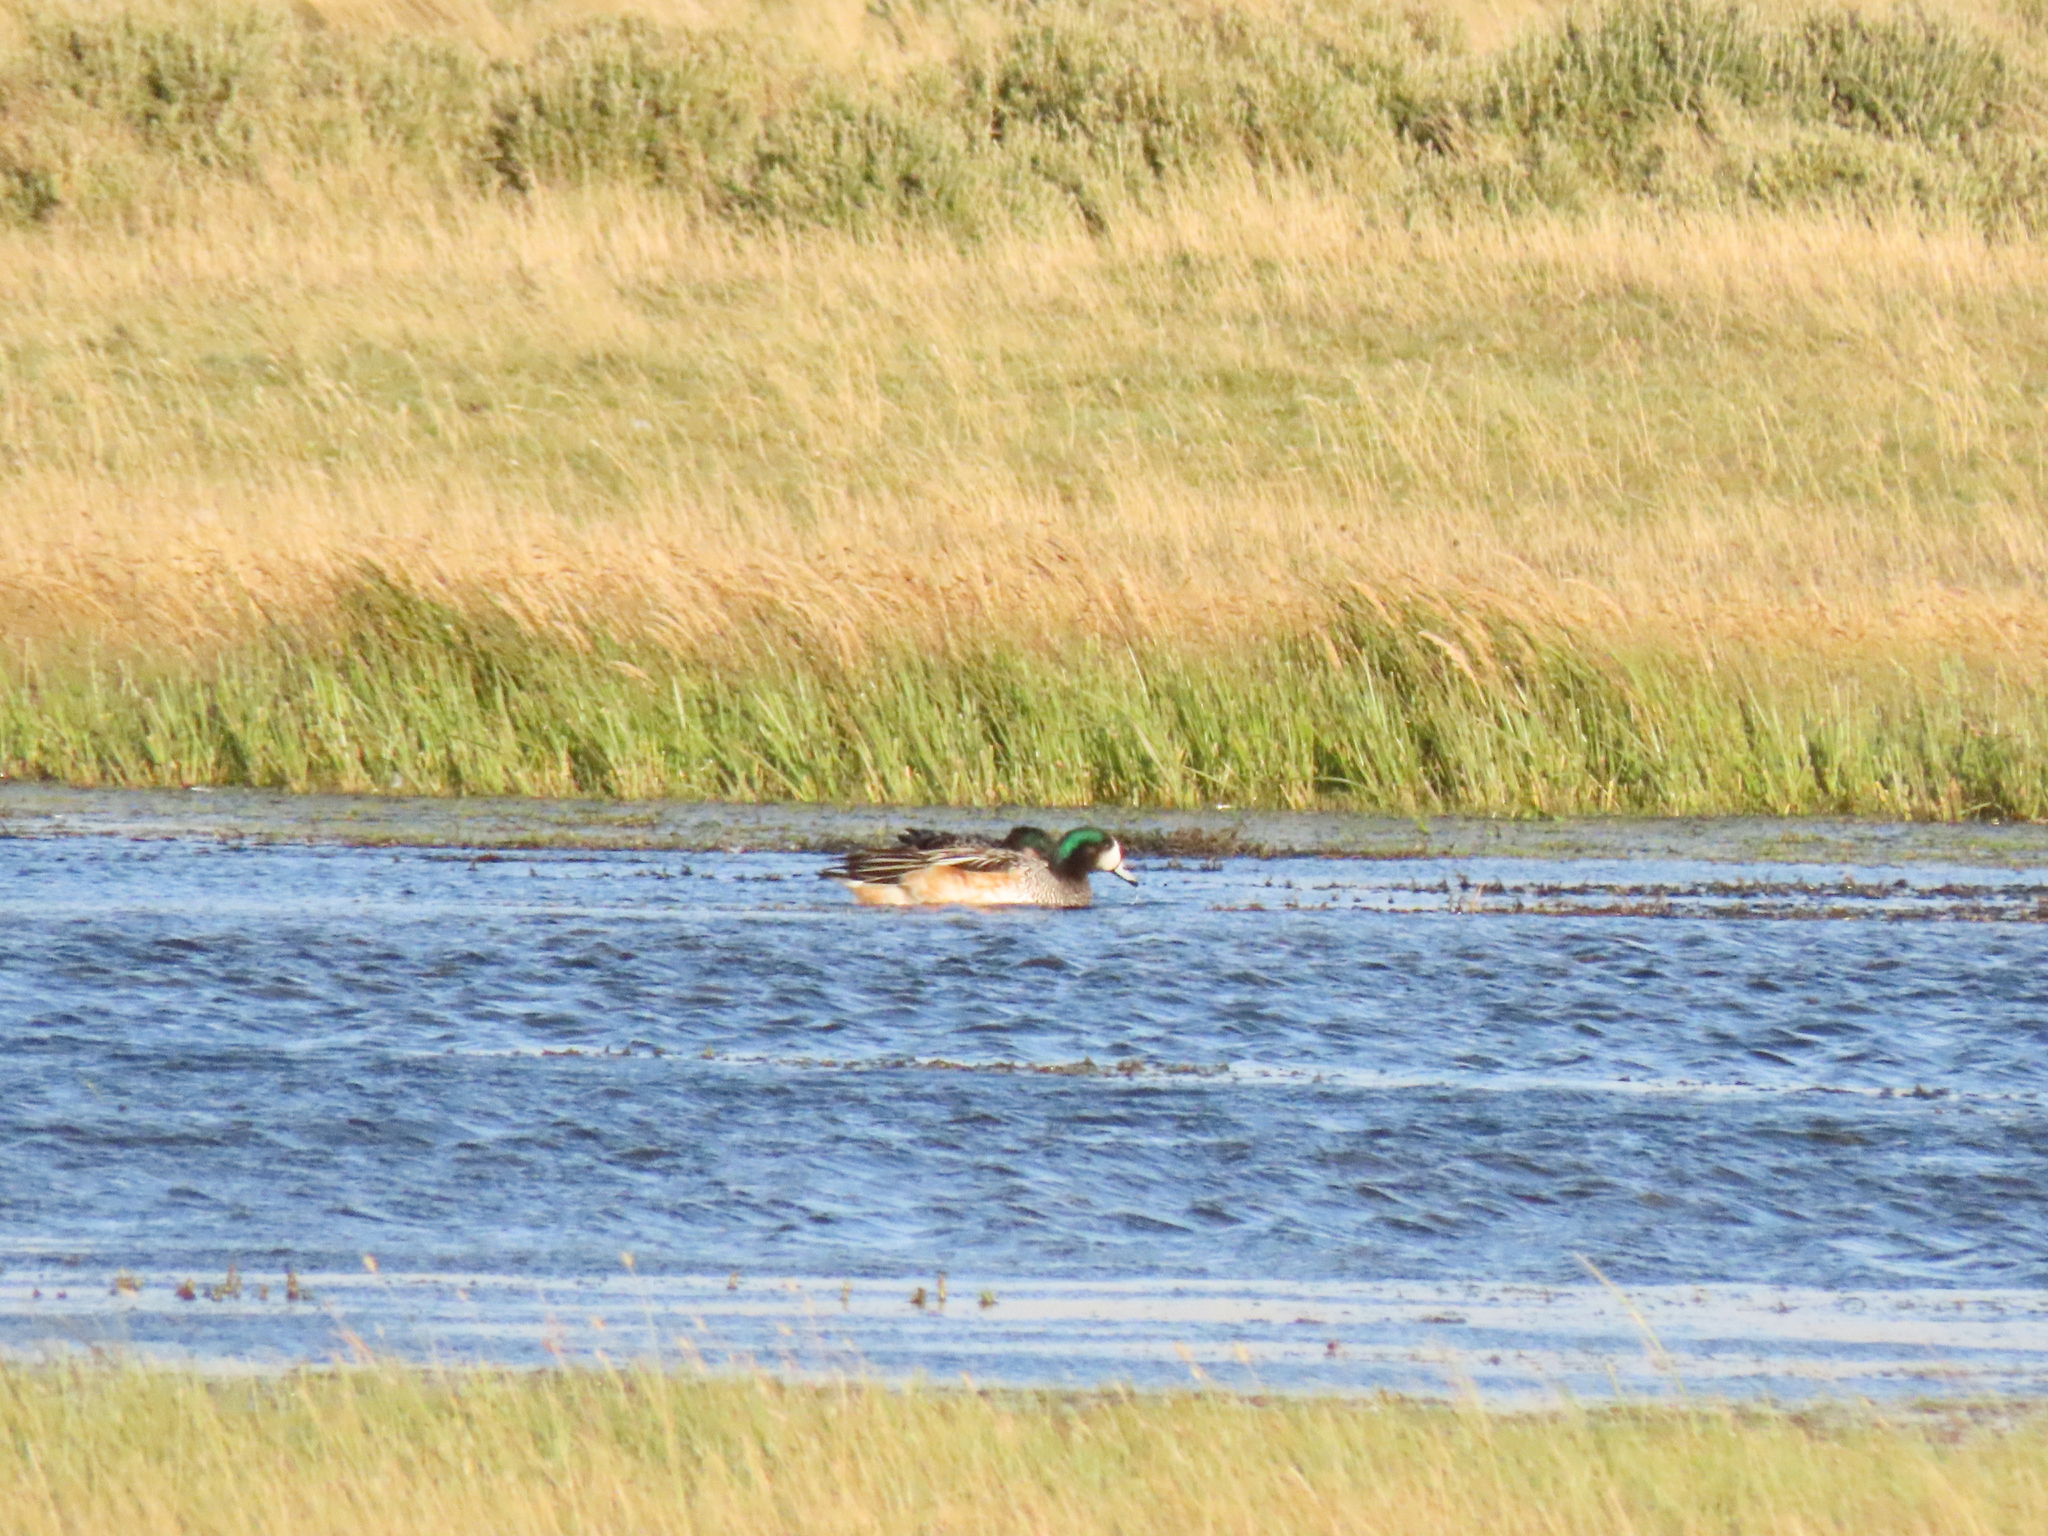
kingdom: Animalia
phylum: Chordata
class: Aves
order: Anseriformes
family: Anatidae
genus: Mareca
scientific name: Mareca sibilatrix
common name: Chiloe wigeon
